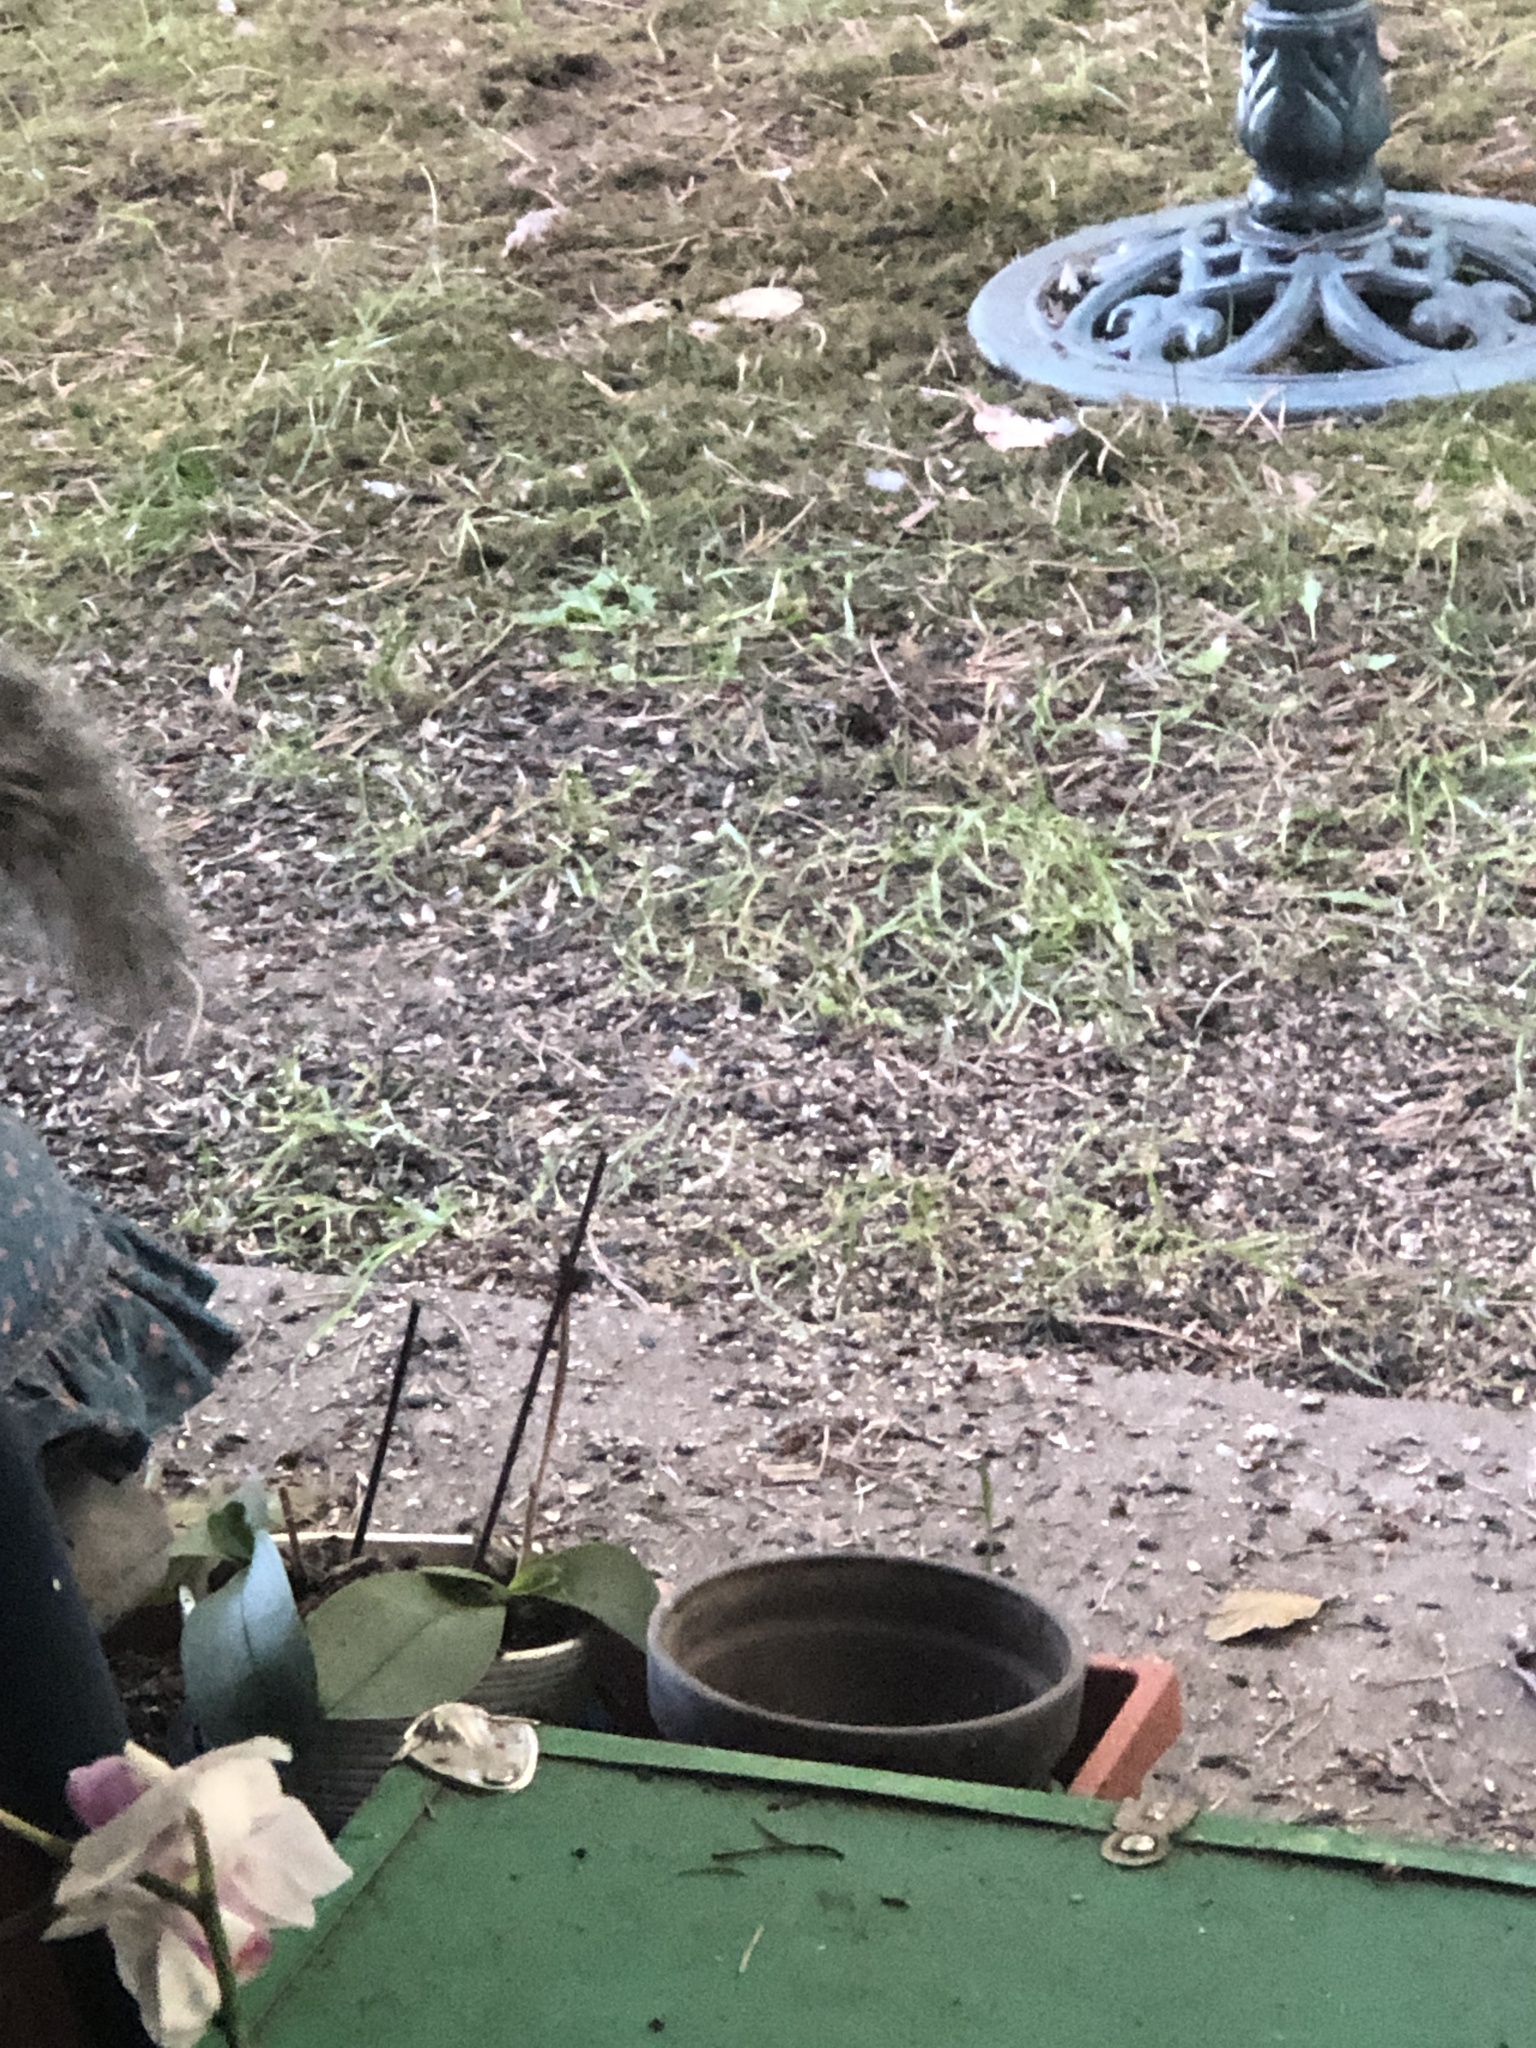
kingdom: Animalia
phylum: Chordata
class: Mammalia
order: Rodentia
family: Sciuridae
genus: Sciurus
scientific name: Sciurus carolinensis
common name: Eastern gray squirrel
